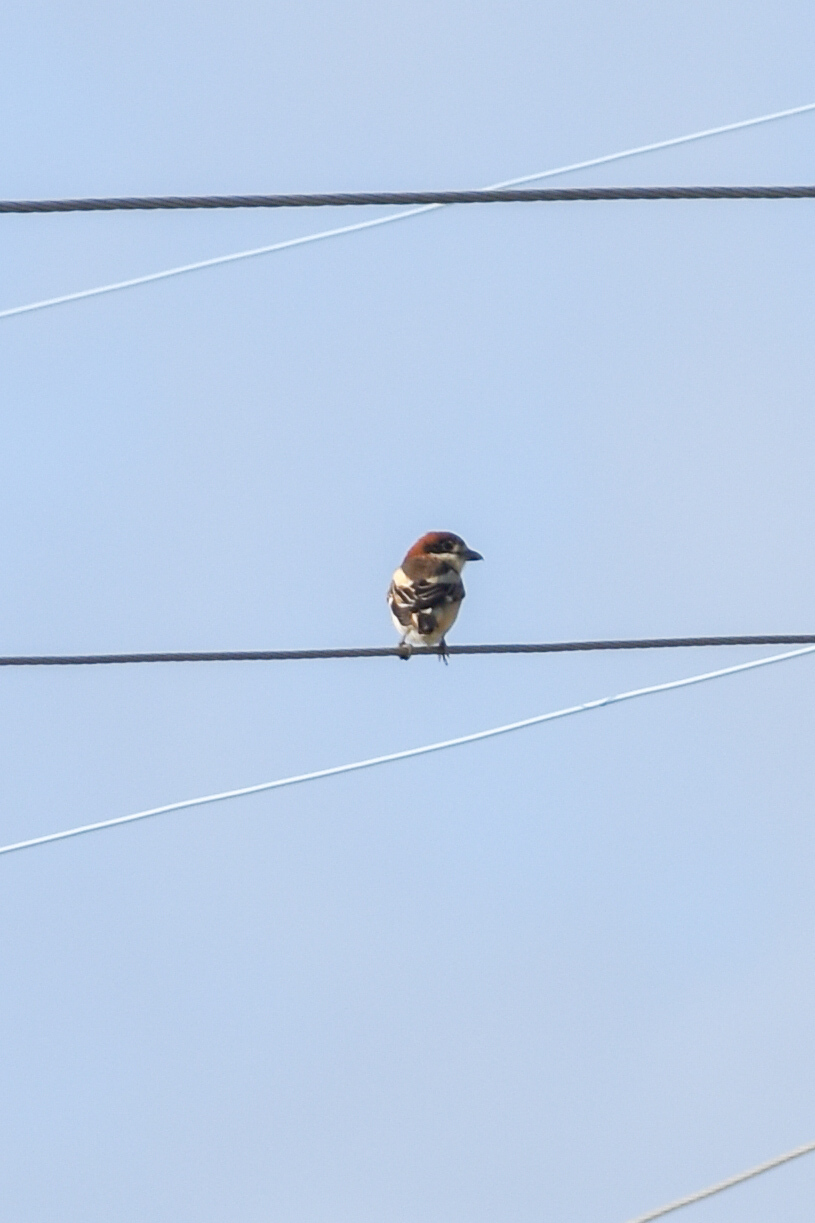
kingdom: Animalia
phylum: Chordata
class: Aves
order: Passeriformes
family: Laniidae
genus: Lanius
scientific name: Lanius senator
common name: Woodchat shrike
